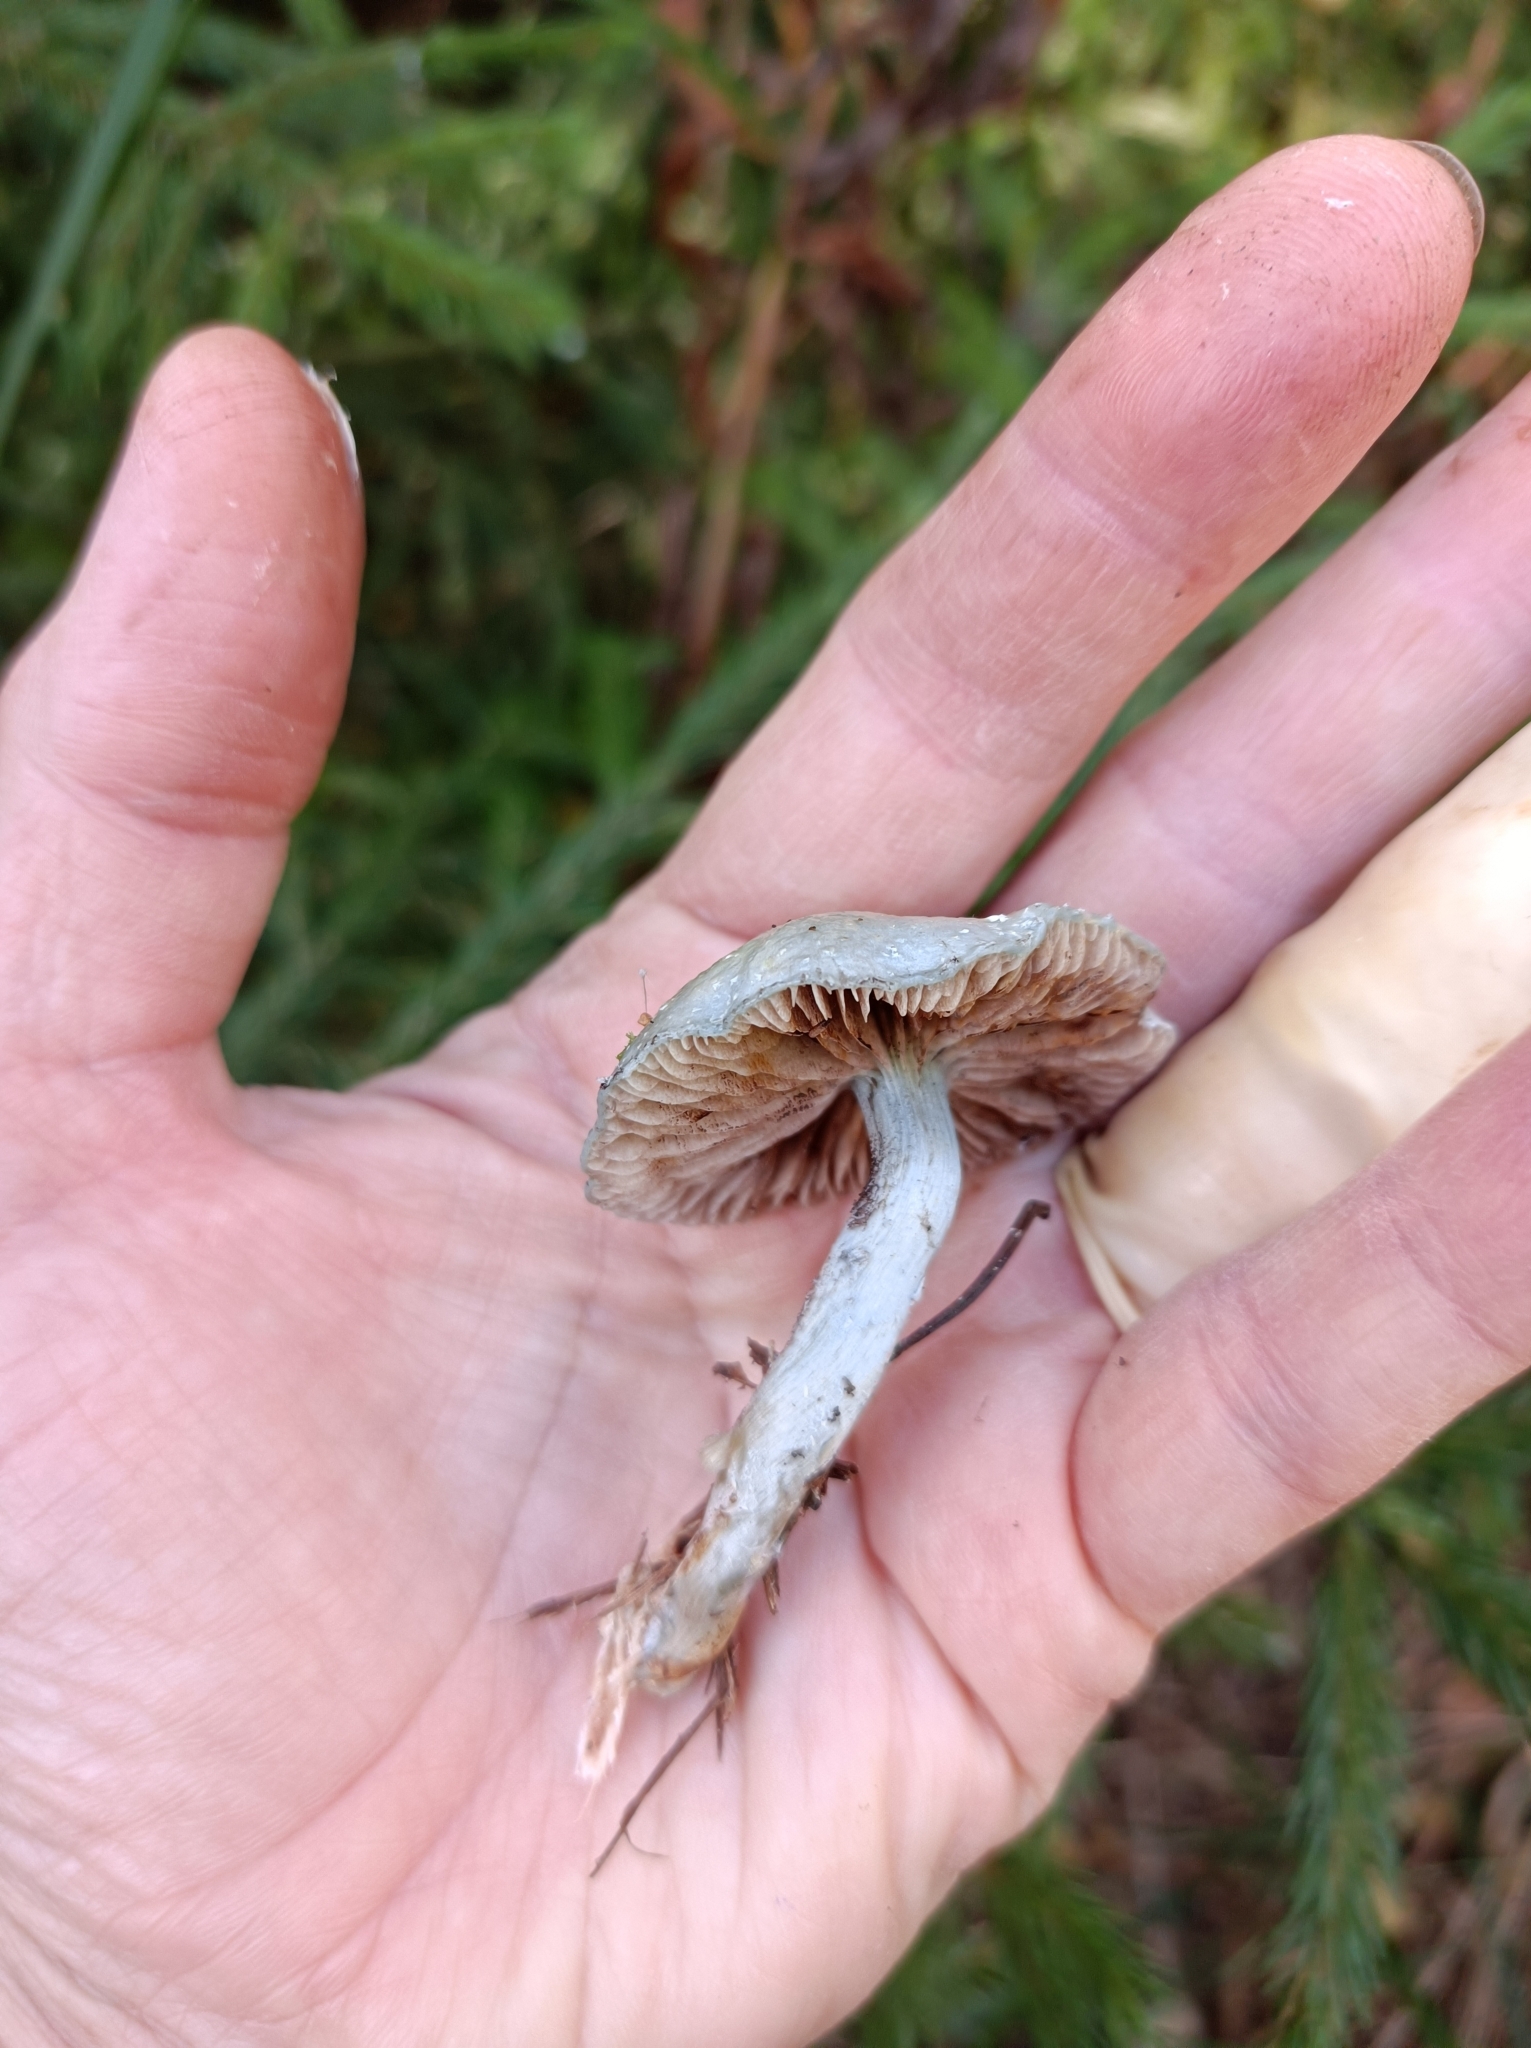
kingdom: Fungi
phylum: Basidiomycota
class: Agaricomycetes
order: Agaricales
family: Strophariaceae
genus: Stropharia
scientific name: Stropharia aeruginosa
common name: Verdigris roundhead
